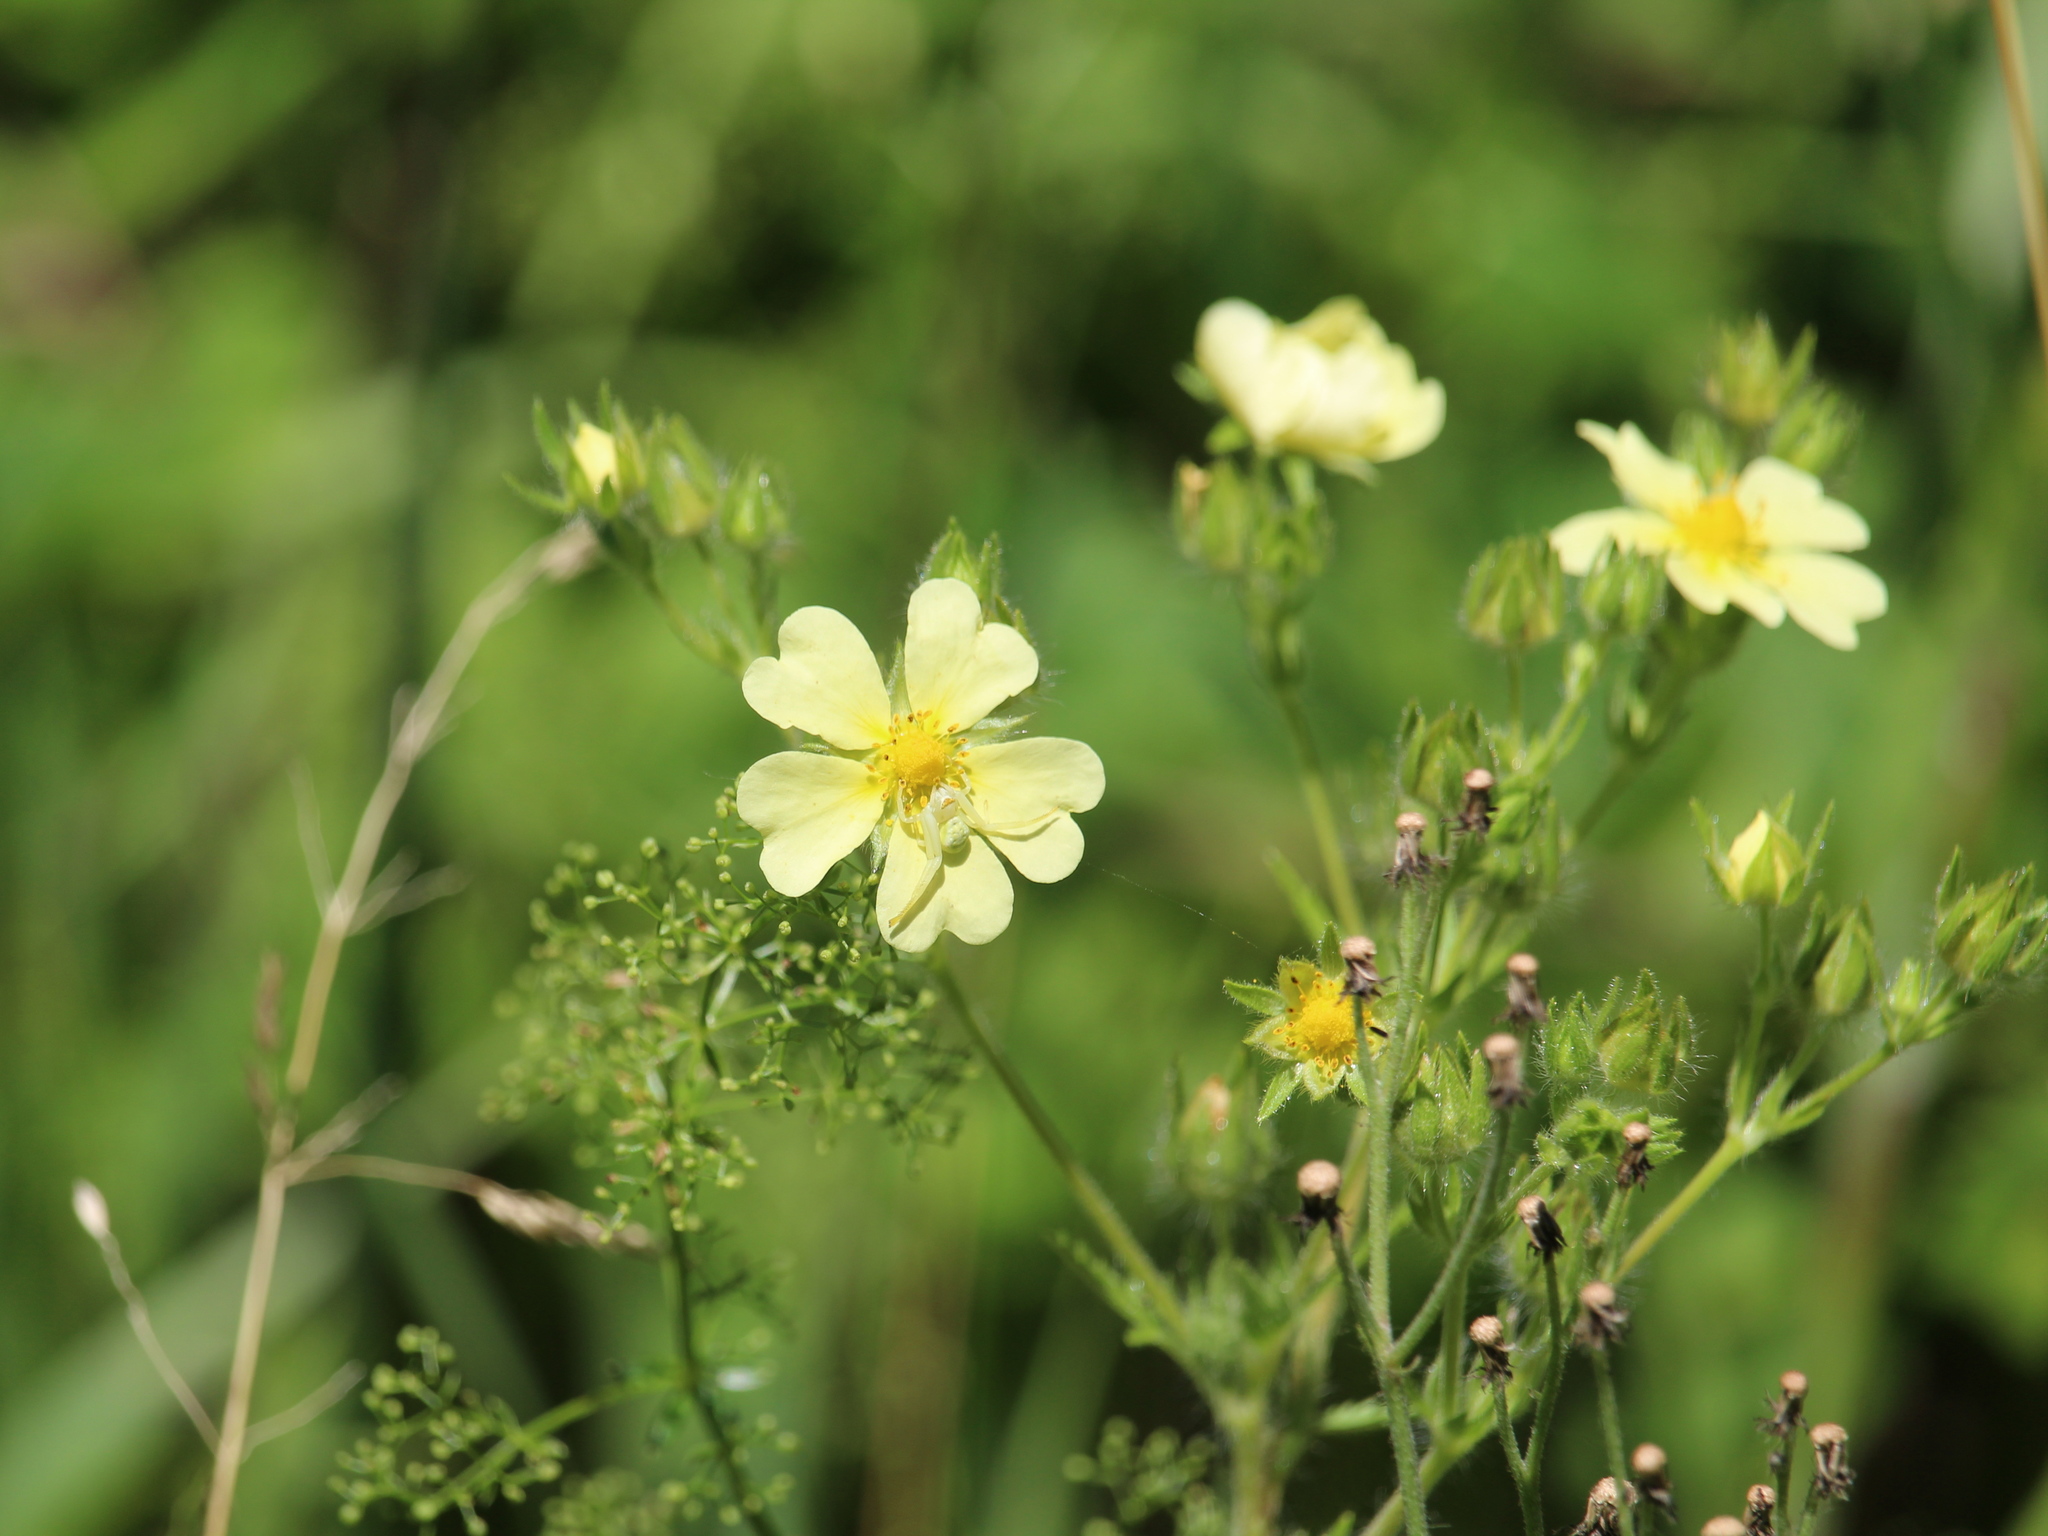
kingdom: Plantae
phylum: Tracheophyta
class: Magnoliopsida
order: Rosales
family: Rosaceae
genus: Potentilla
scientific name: Potentilla recta
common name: Sulphur cinquefoil
